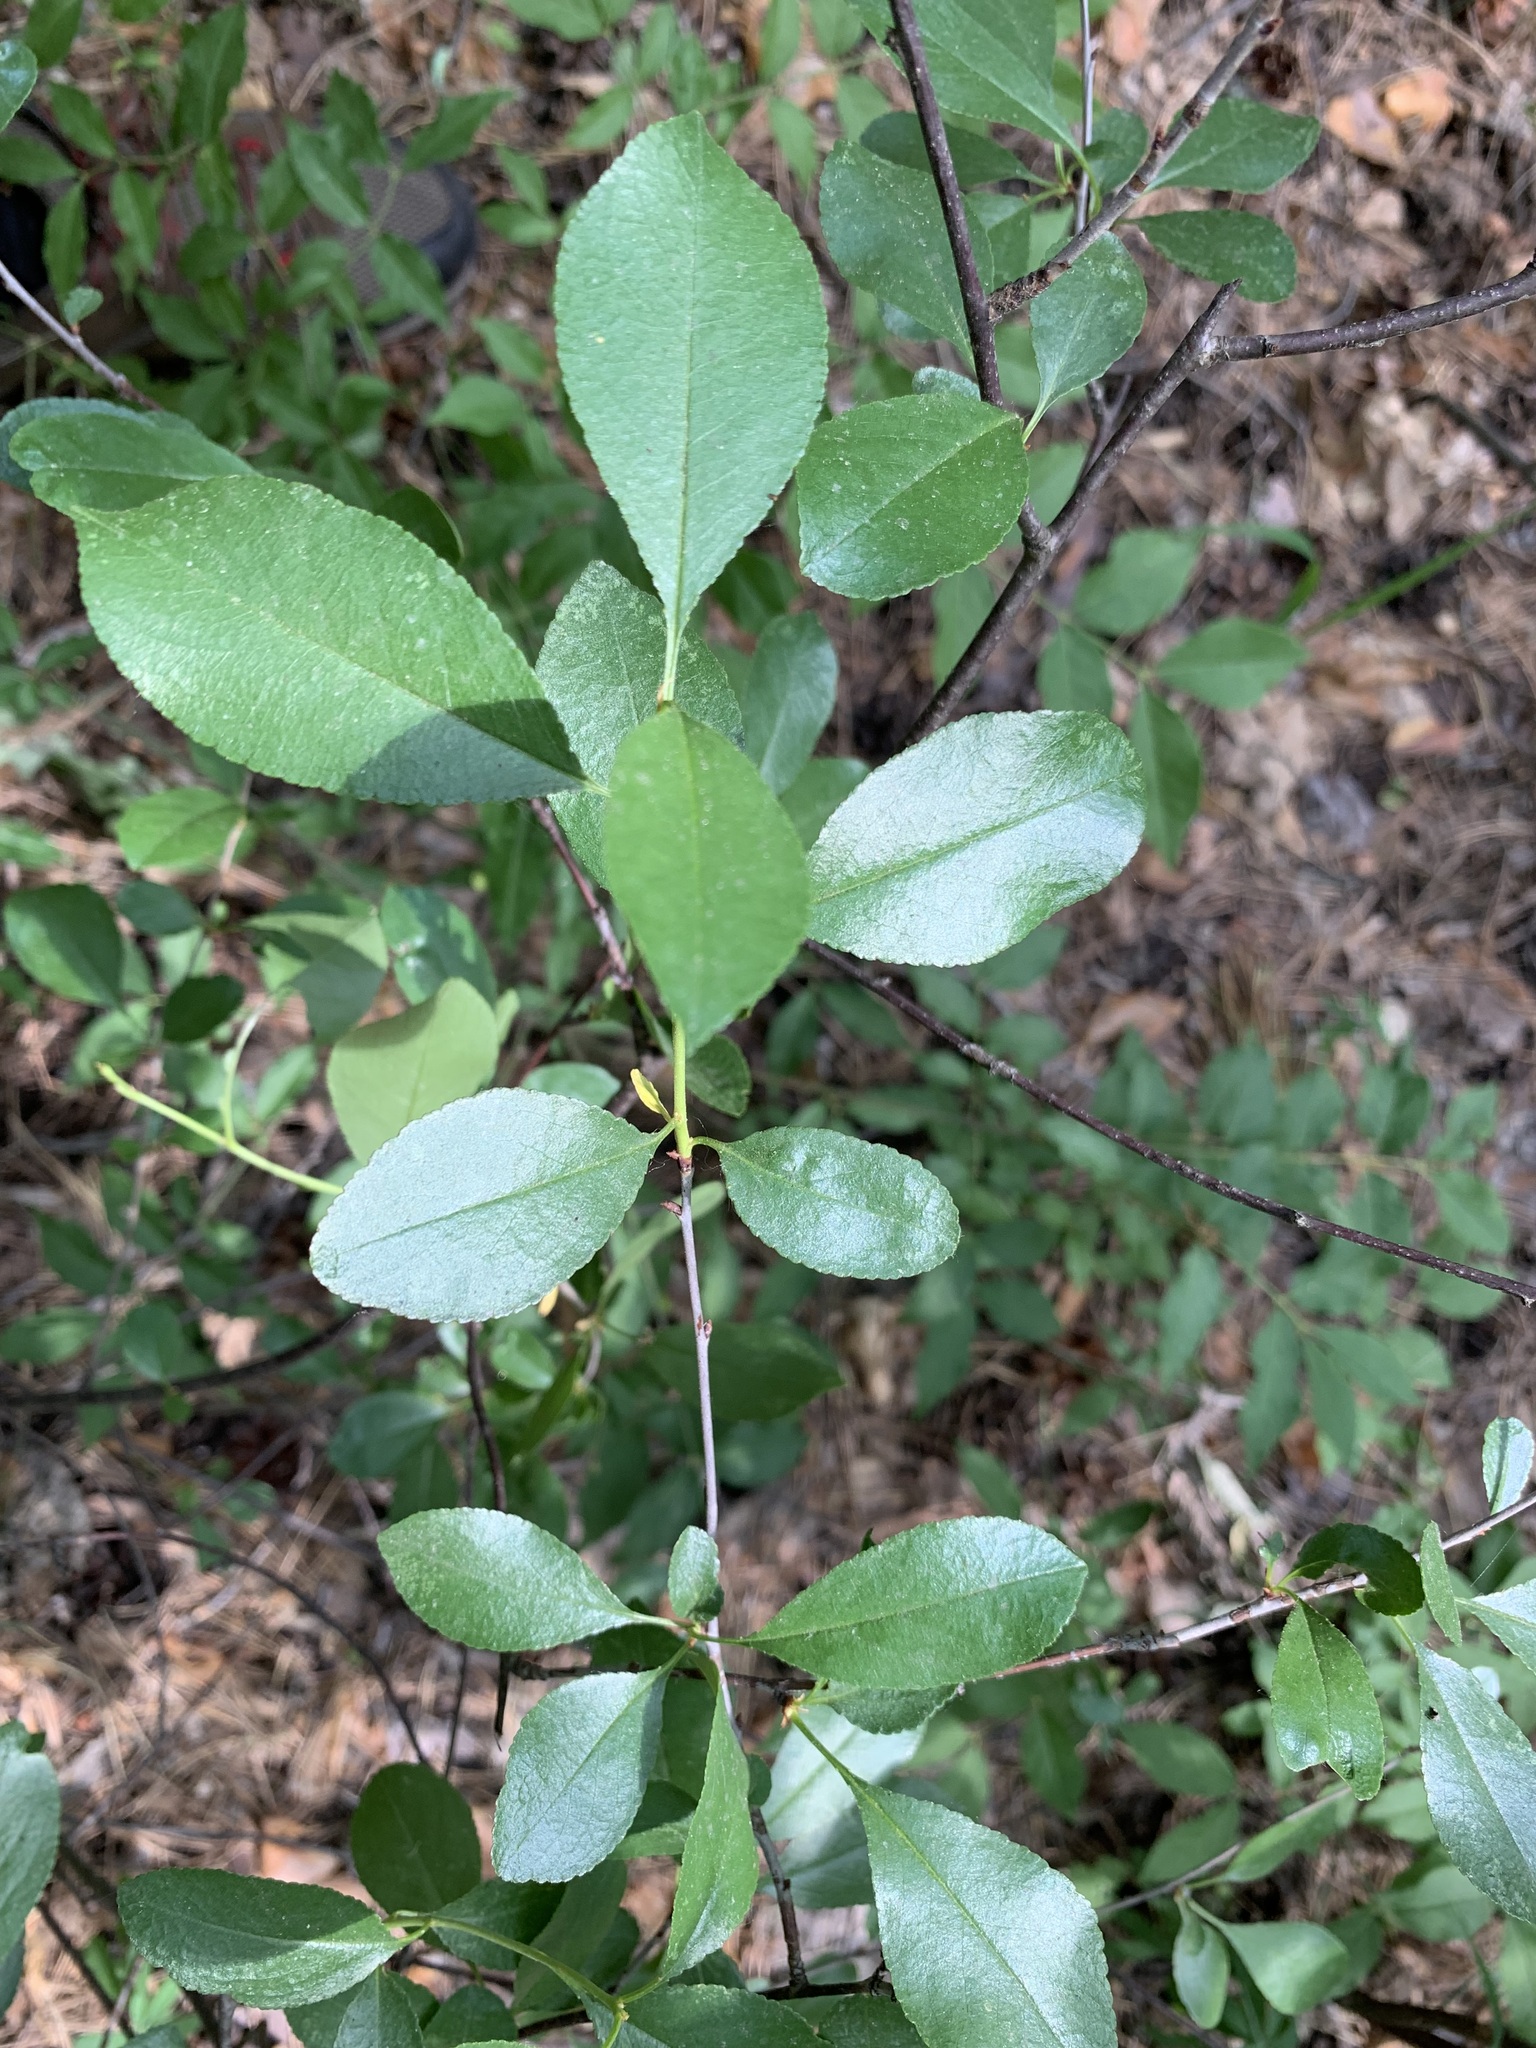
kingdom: Plantae
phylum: Tracheophyta
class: Magnoliopsida
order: Rosales
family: Rosaceae
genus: Prunus
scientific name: Prunus fruticosa
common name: European dwarf cherry
